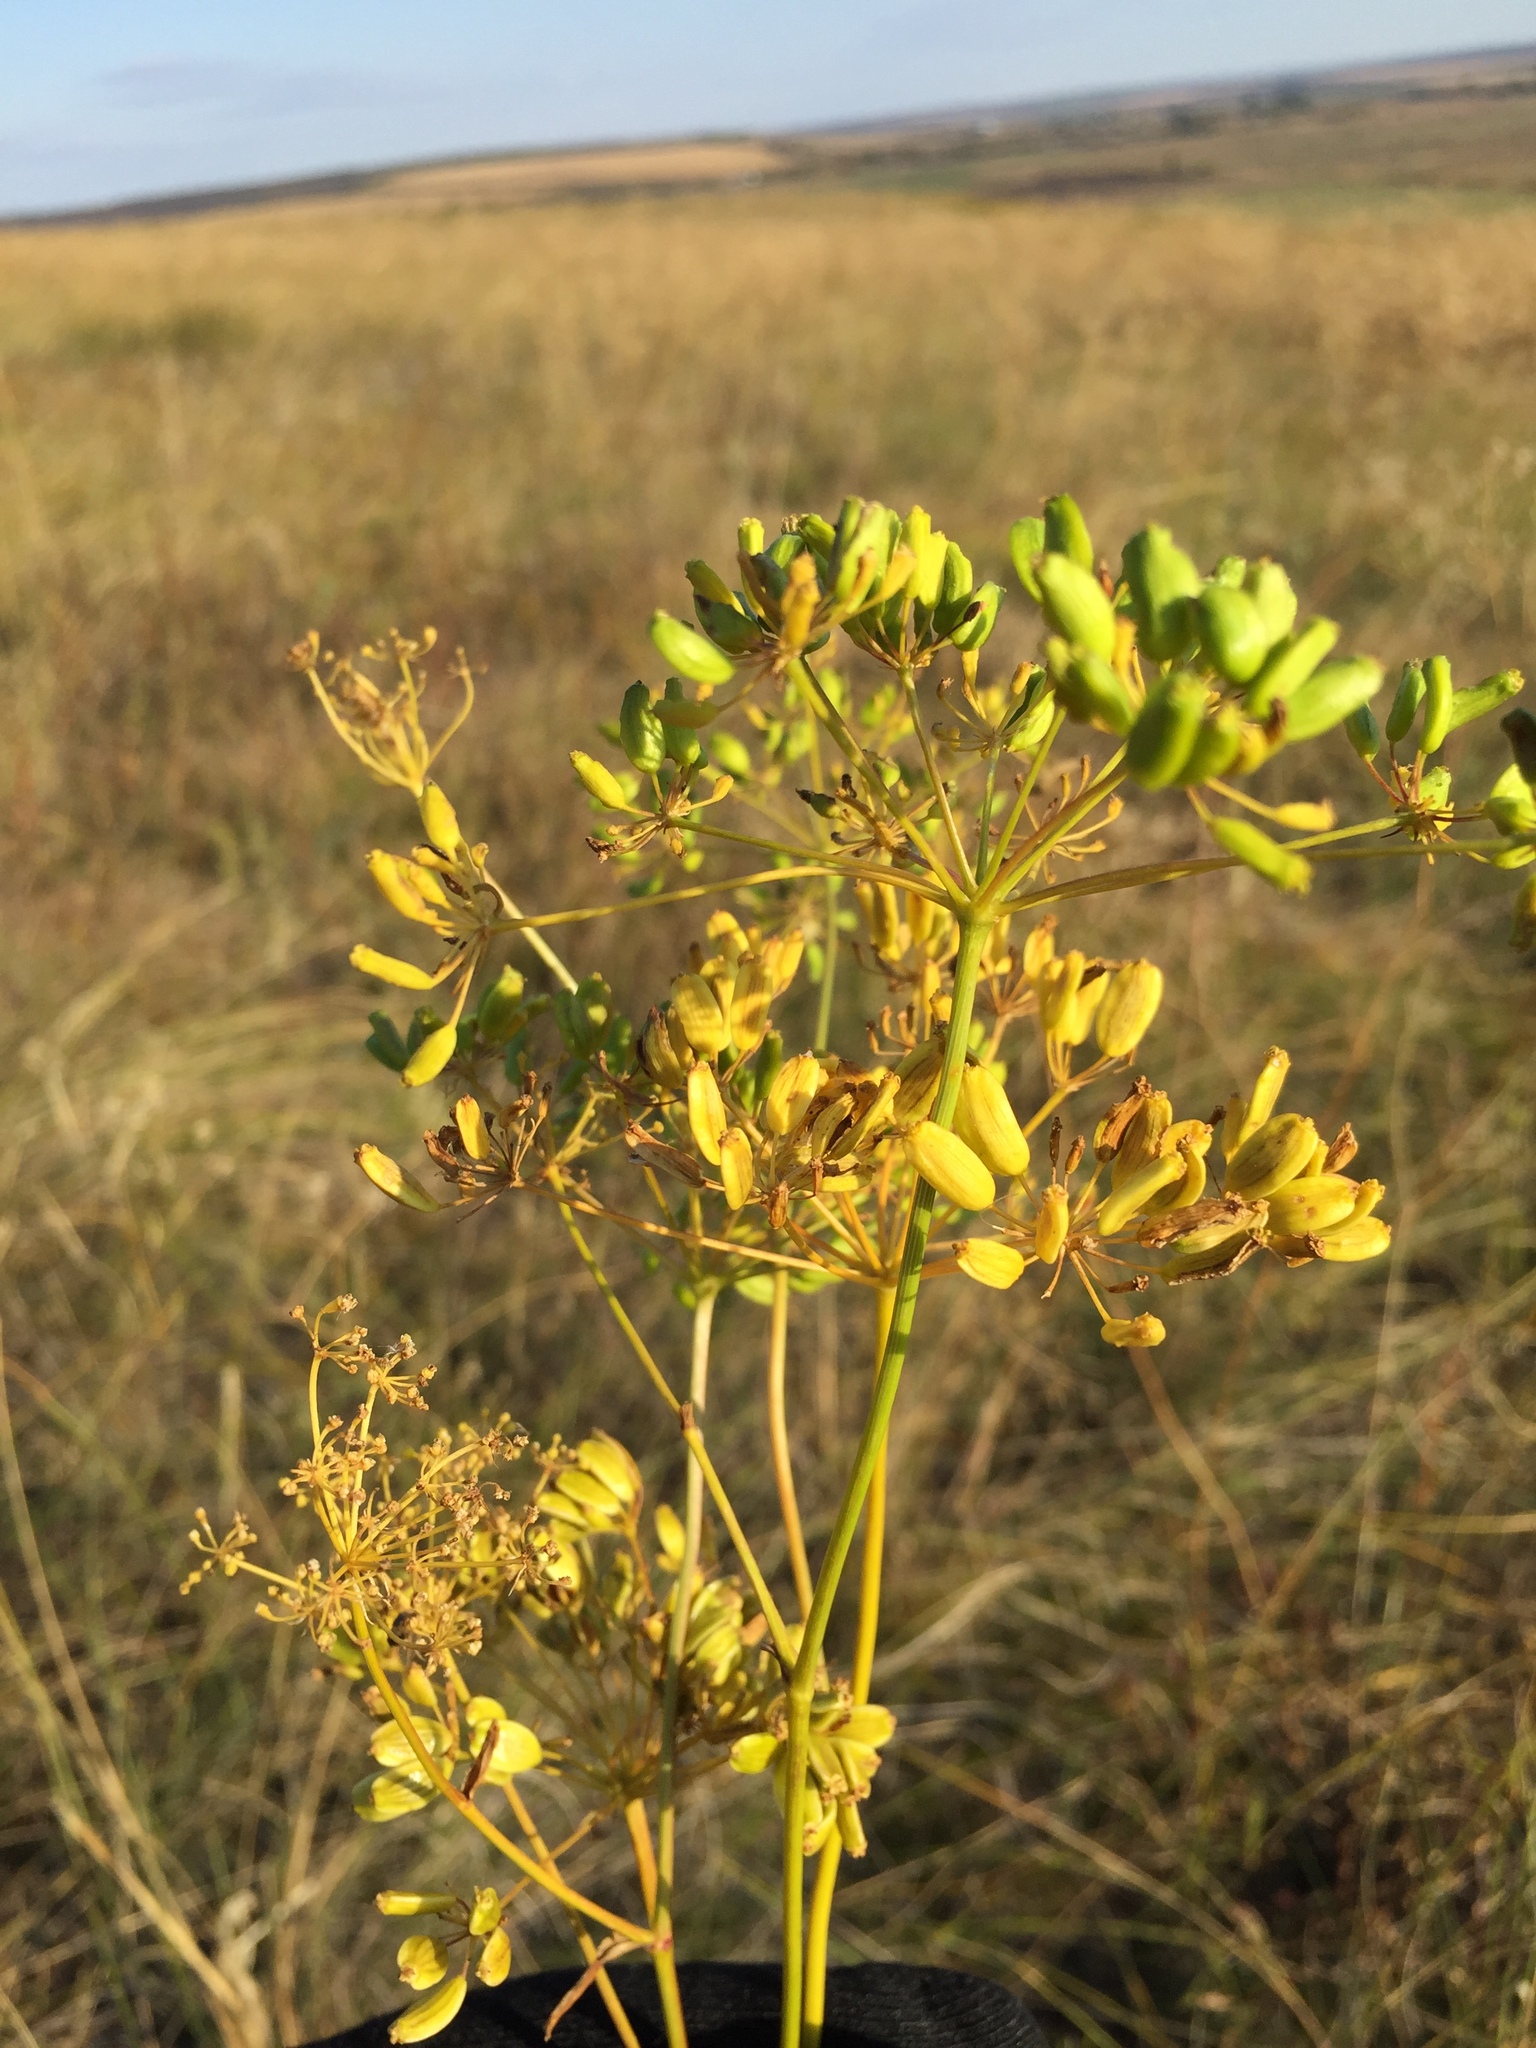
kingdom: Plantae
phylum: Tracheophyta
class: Magnoliopsida
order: Apiales
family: Apiaceae
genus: Peucedanum
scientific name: Peucedanum ruthenicum
